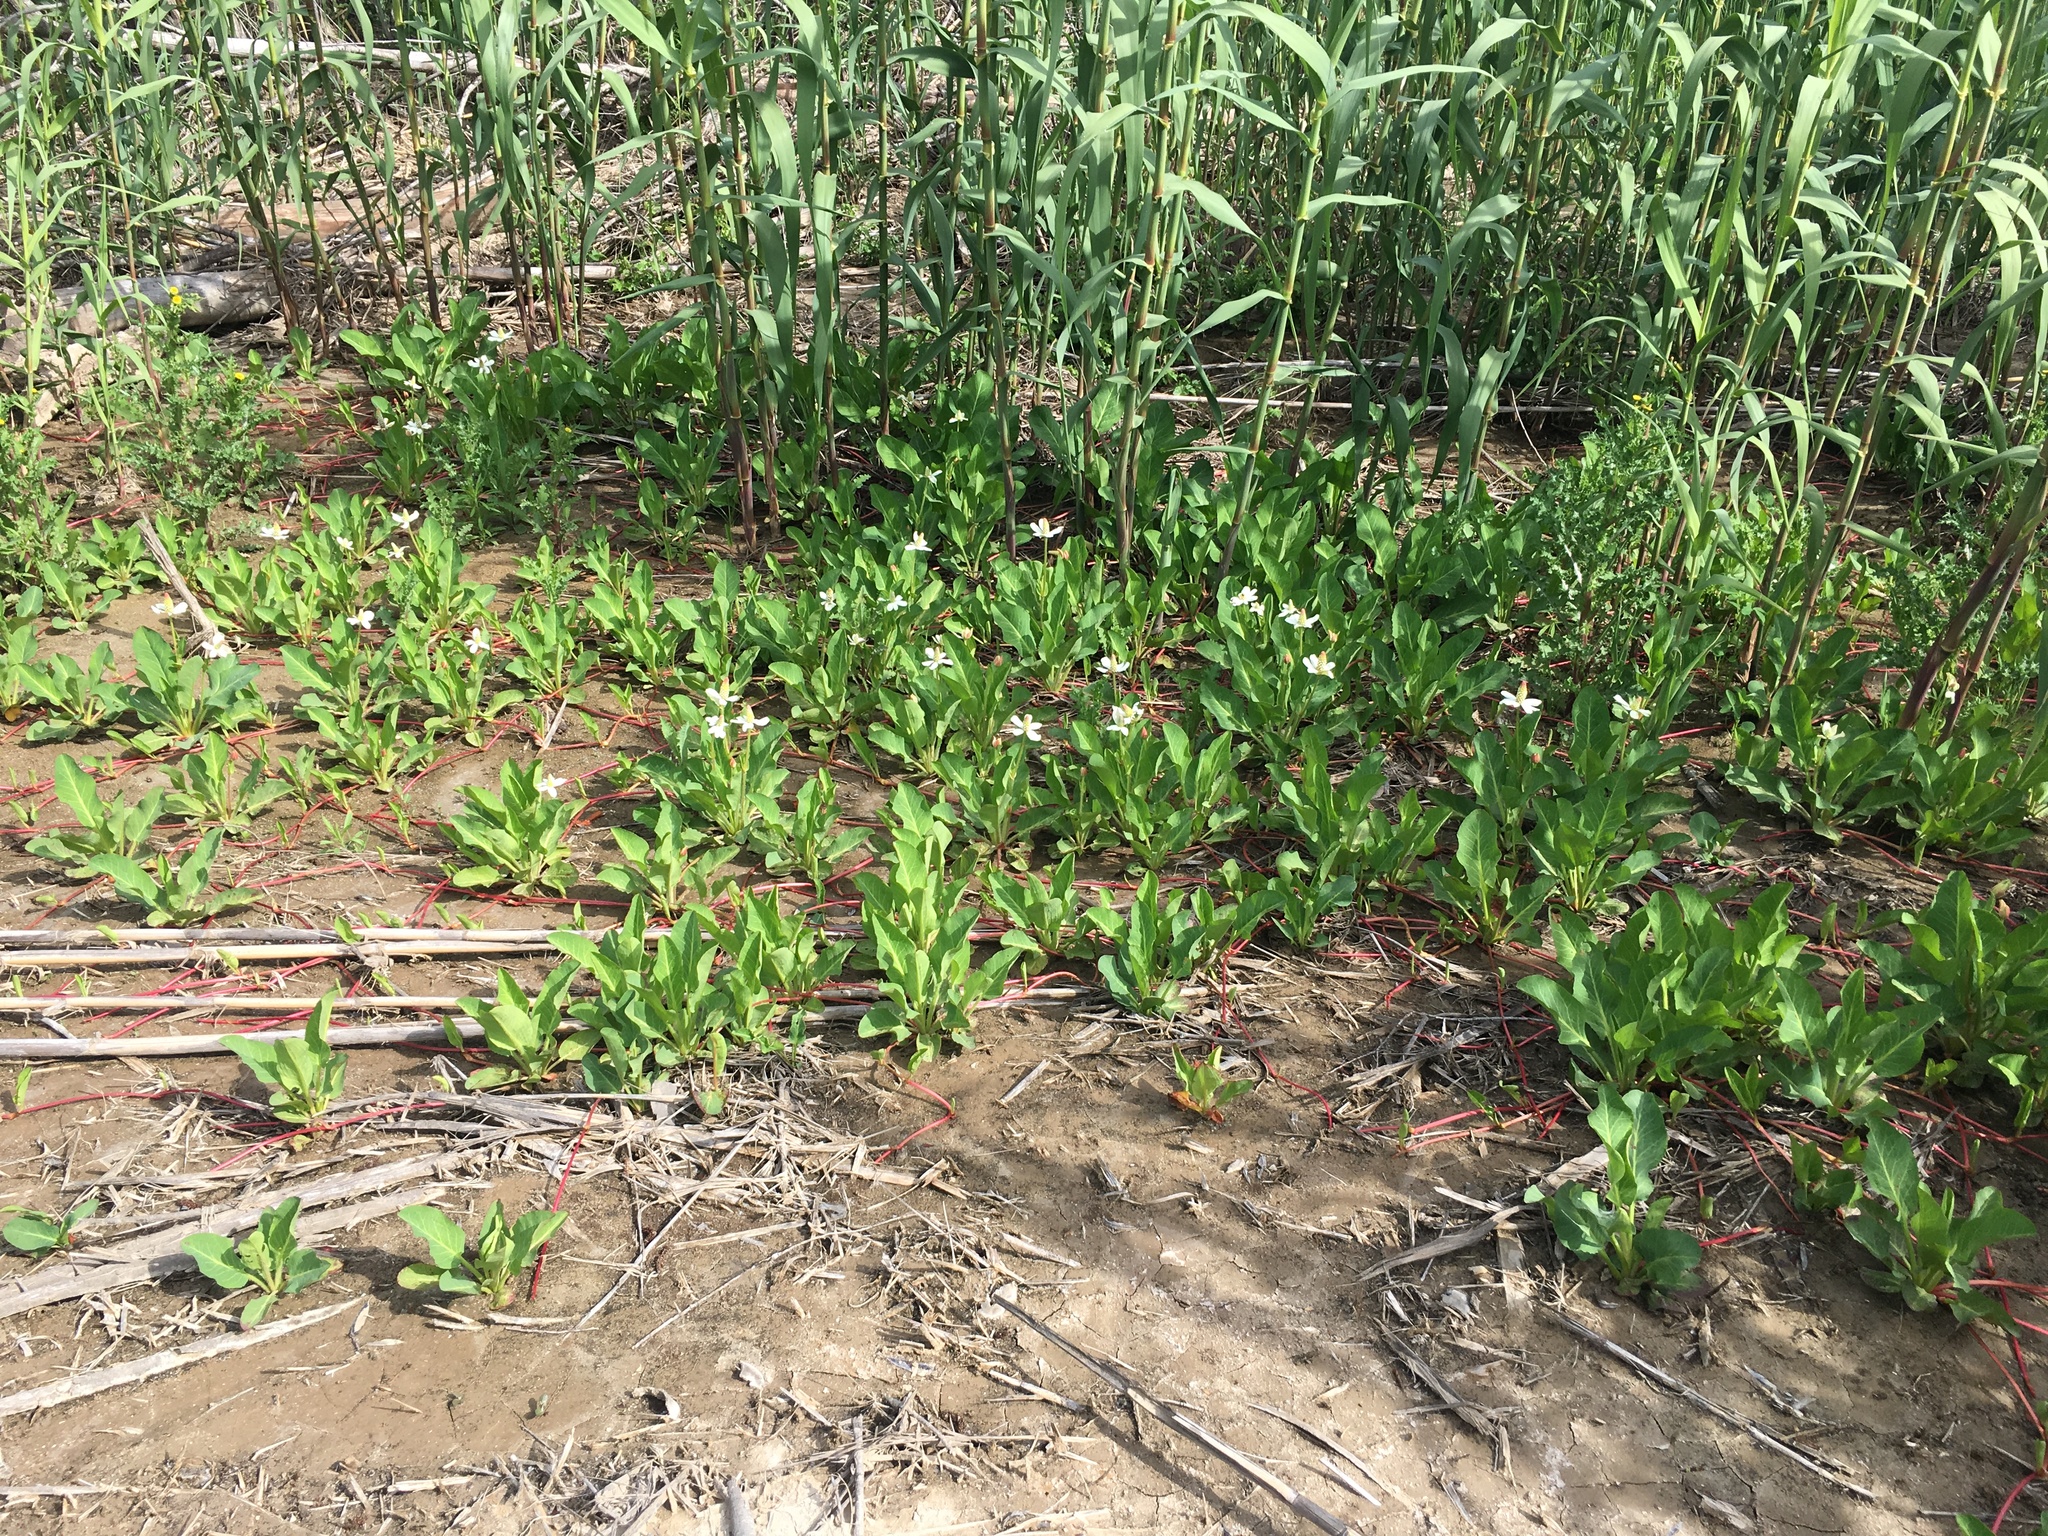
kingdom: Plantae
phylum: Tracheophyta
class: Liliopsida
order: Poales
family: Poaceae
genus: Arundo
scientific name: Arundo donax
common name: Giant reed
